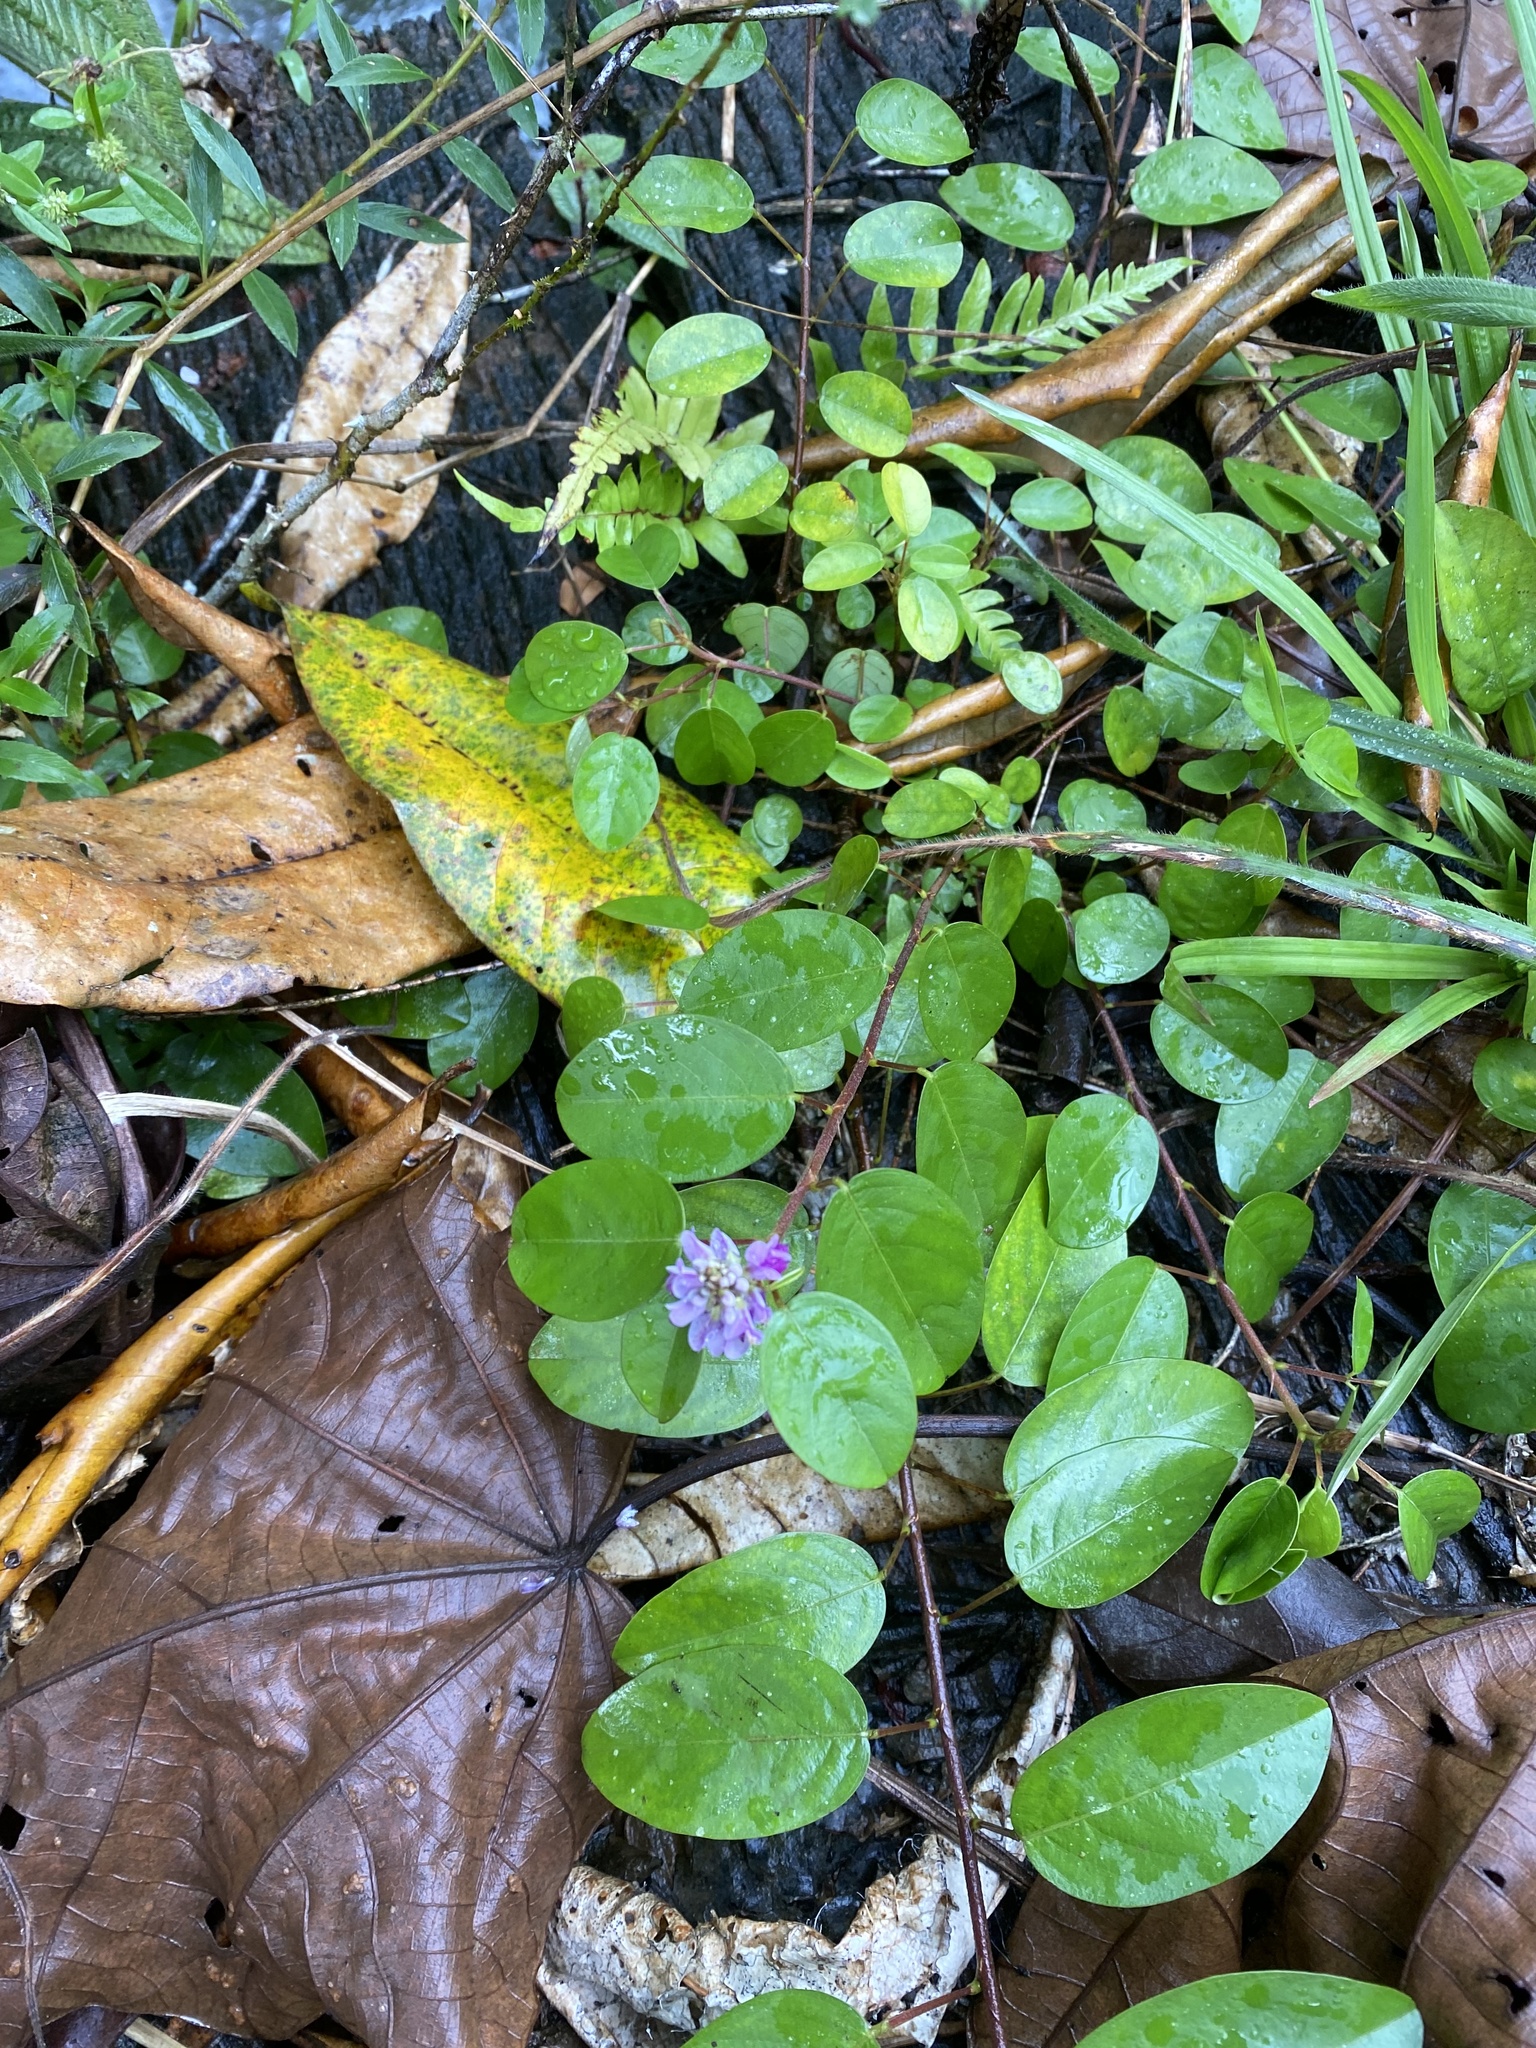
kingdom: Plantae
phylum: Tracheophyta
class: Magnoliopsida
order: Fabales
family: Fabaceae
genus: Grona
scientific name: Grona heterocarpos
